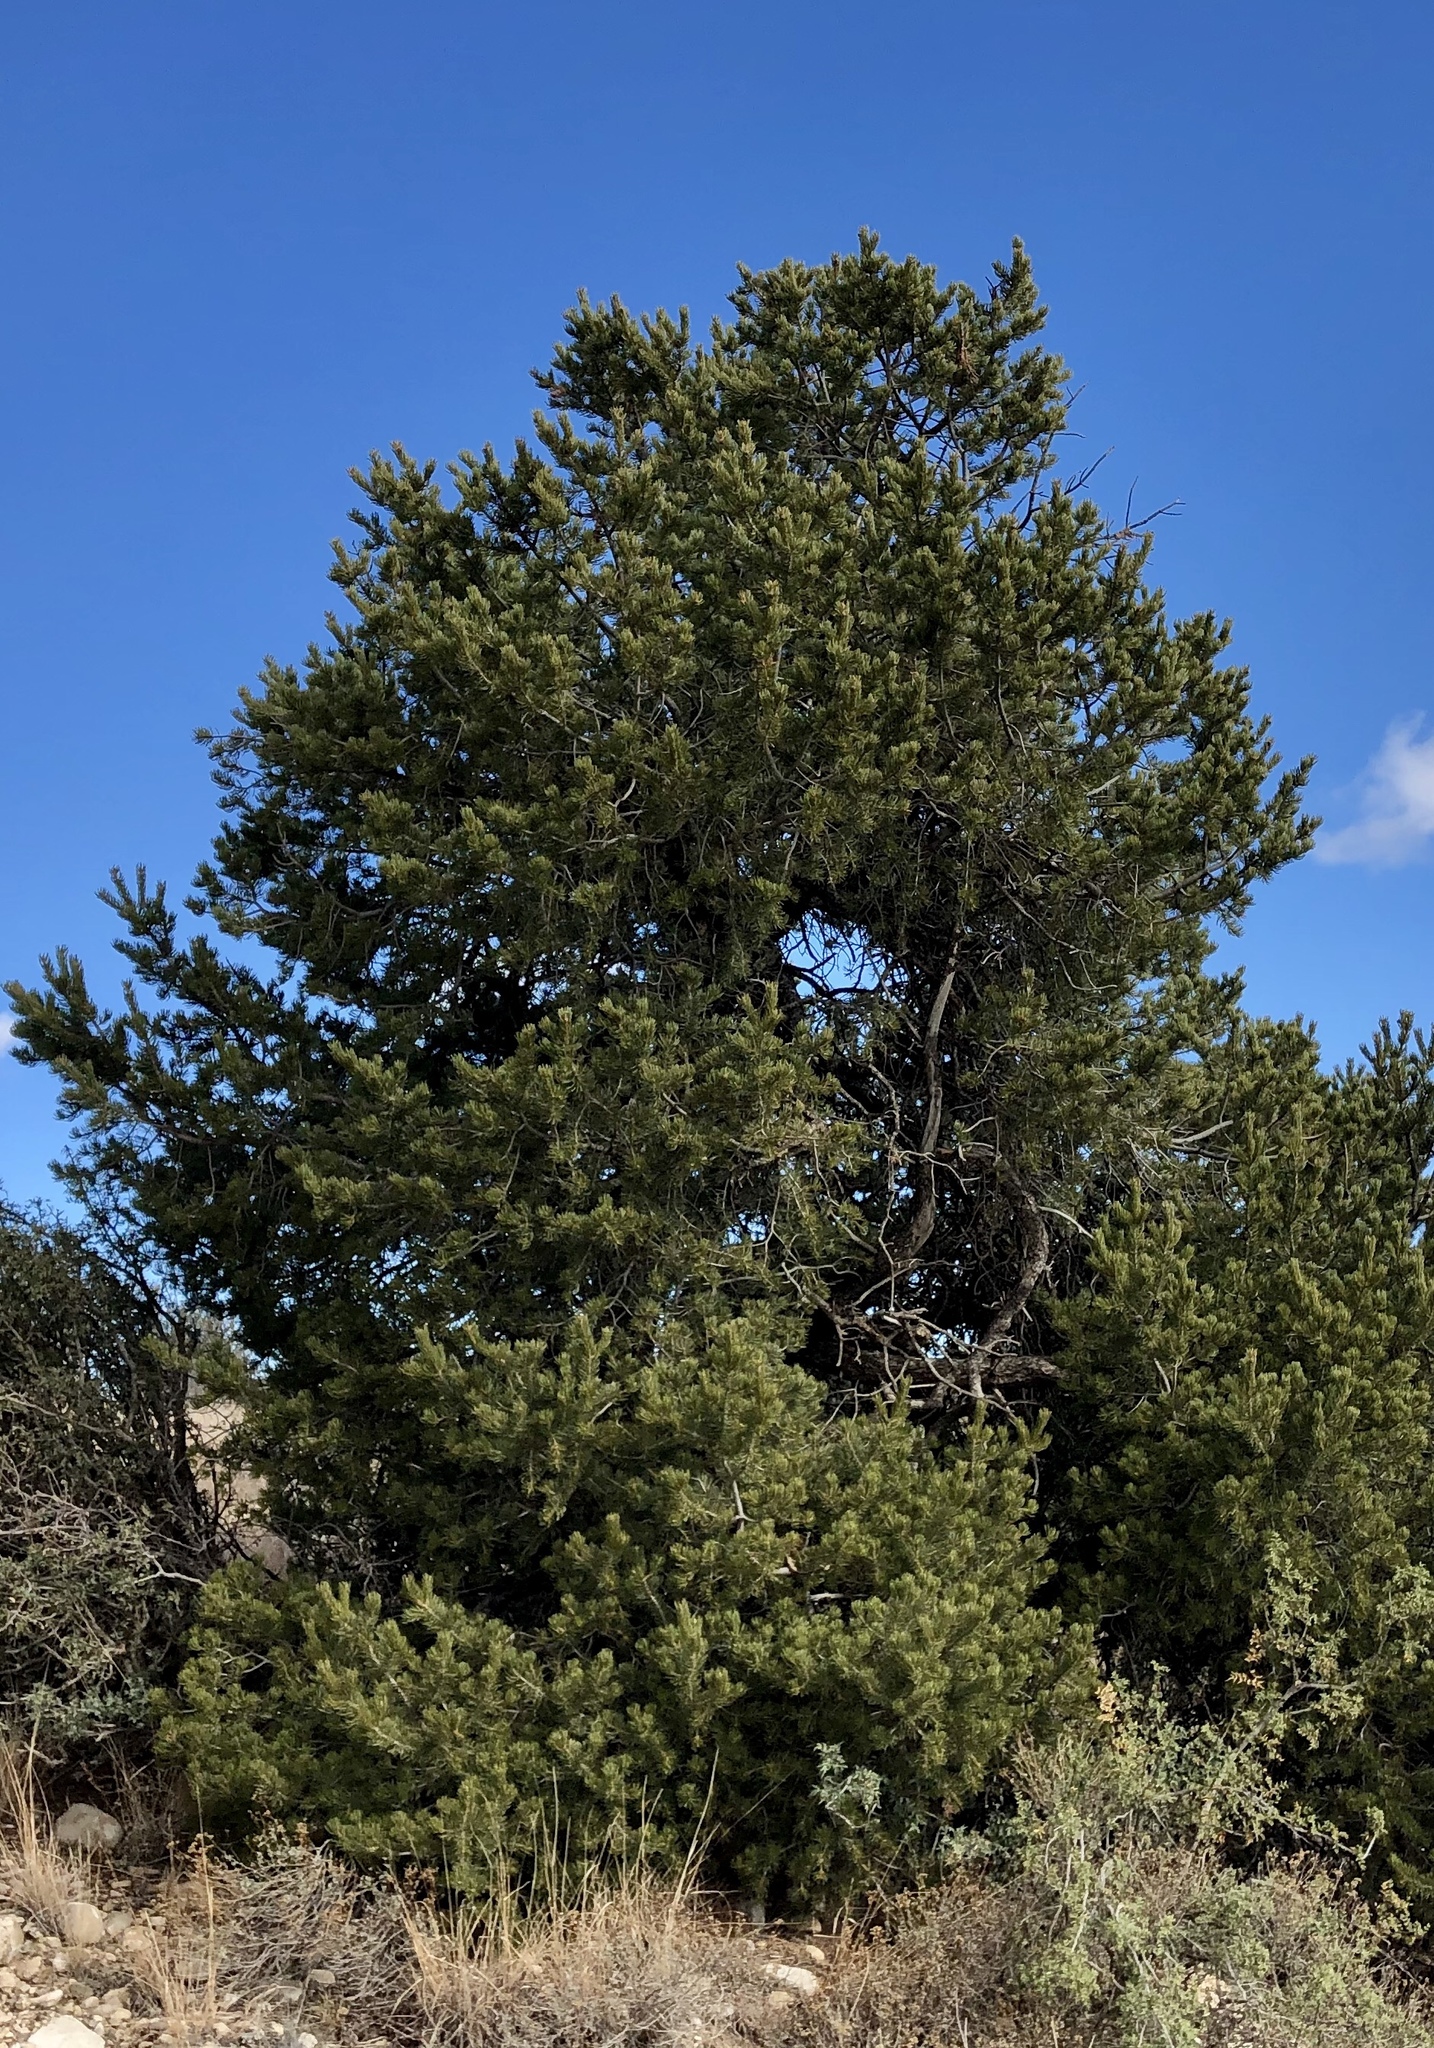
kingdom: Plantae
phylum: Tracheophyta
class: Pinopsida
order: Pinales
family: Pinaceae
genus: Pinus
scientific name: Pinus edulis
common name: Colorado pinyon
